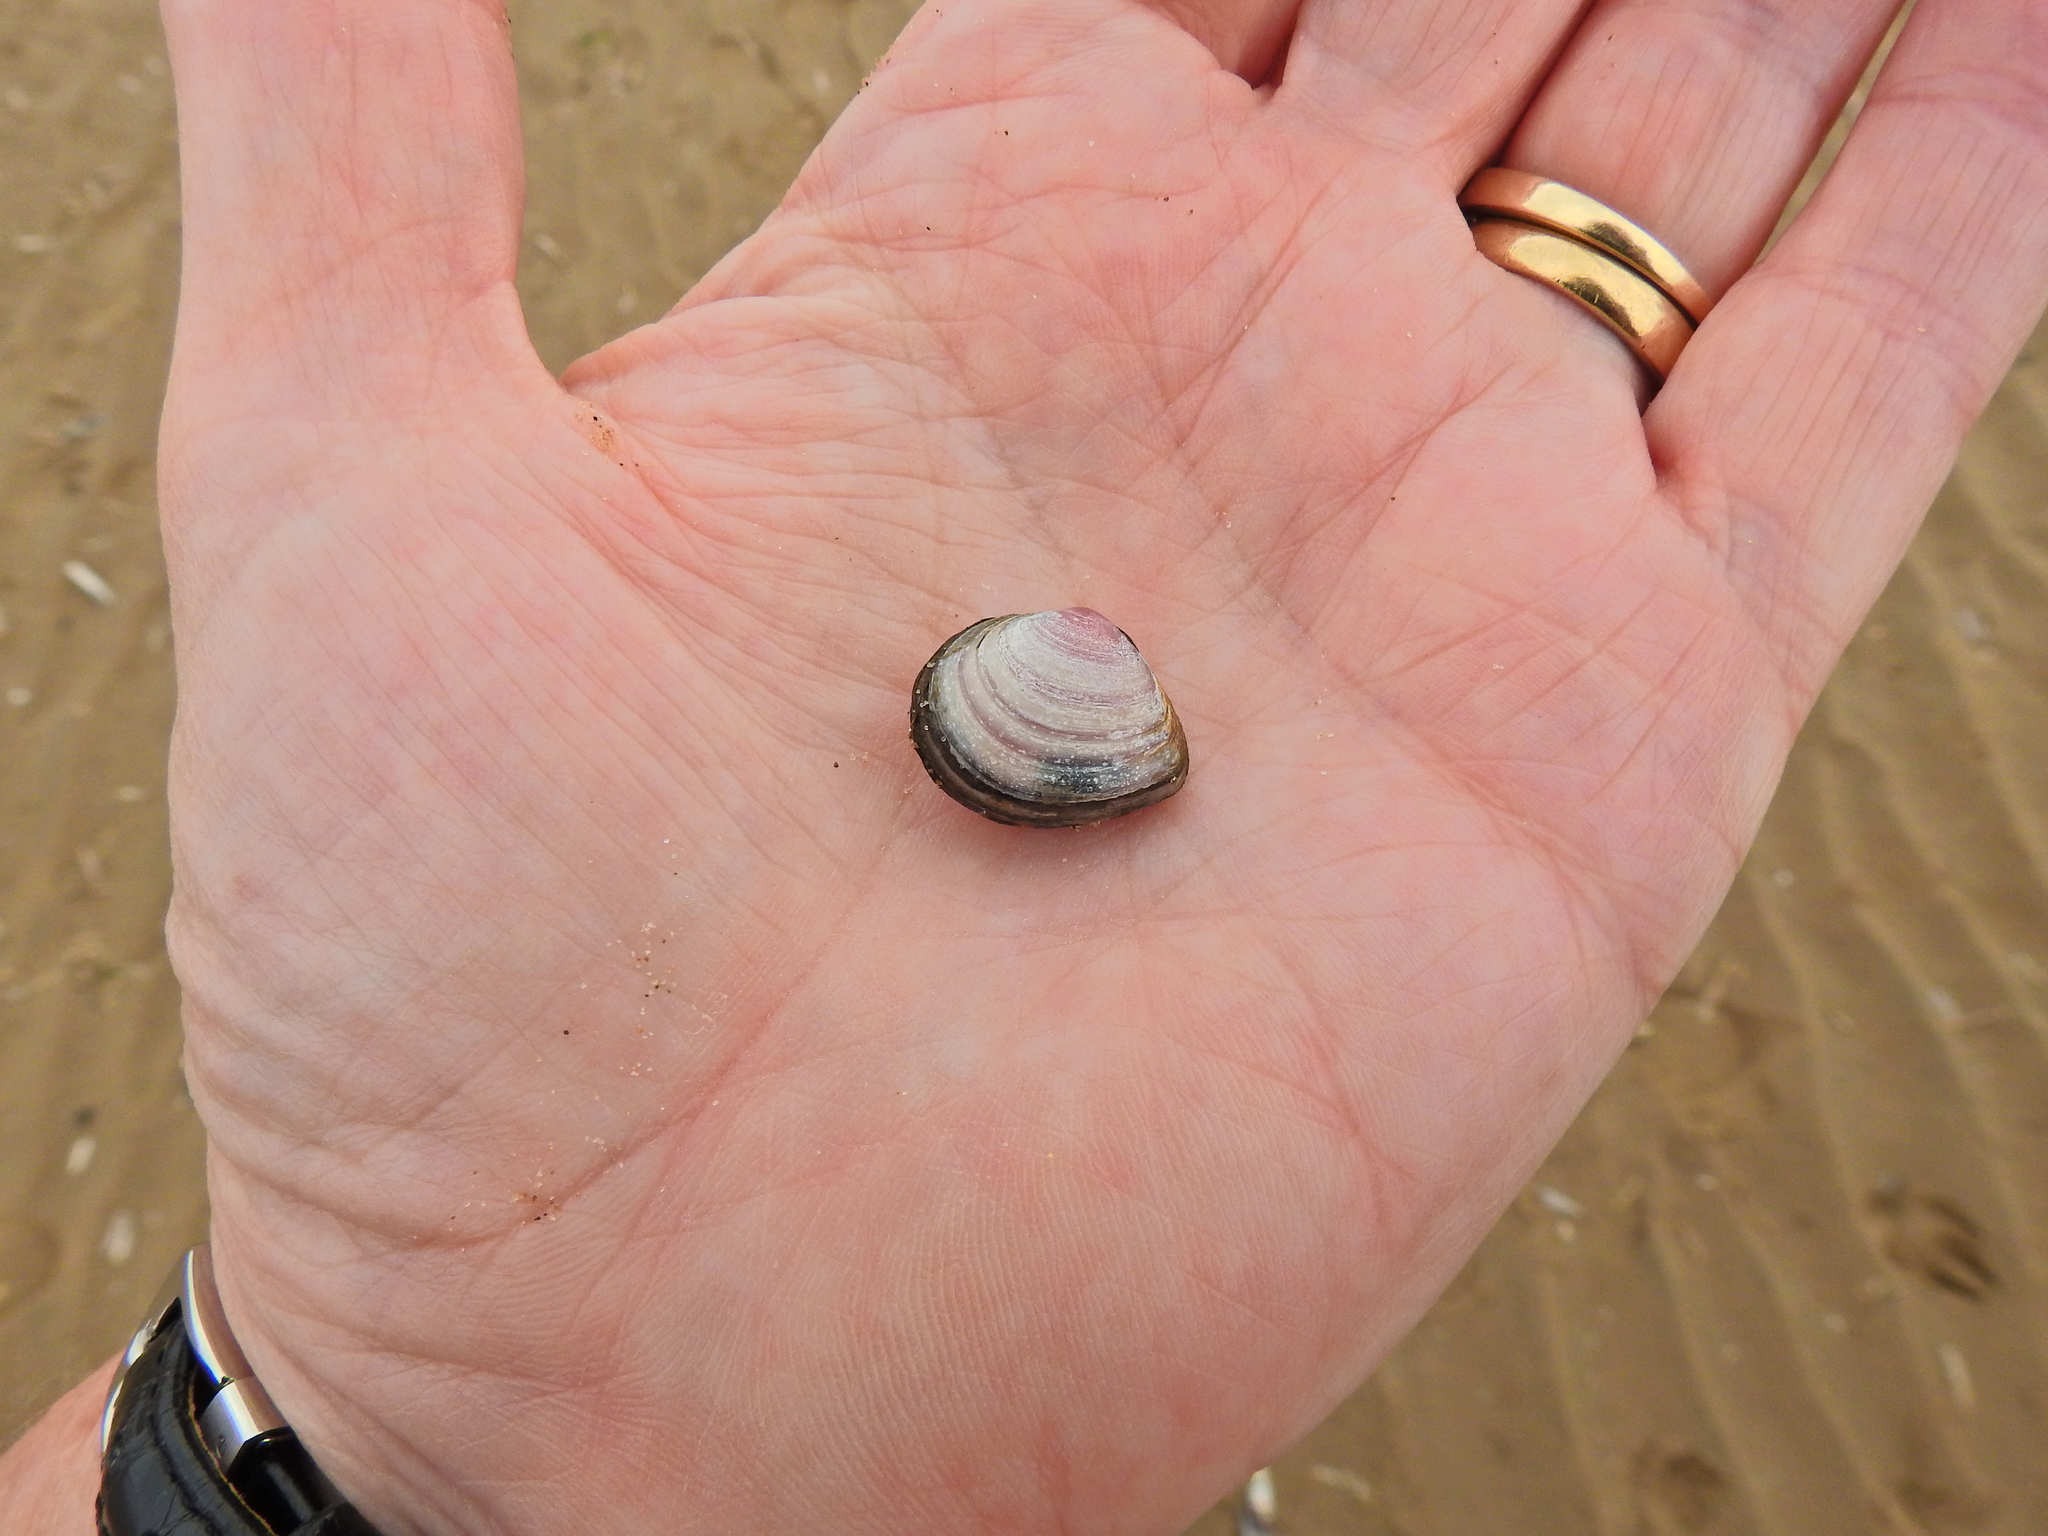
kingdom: Animalia
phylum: Mollusca
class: Bivalvia
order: Cardiida
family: Tellinidae
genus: Macoma
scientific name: Macoma balthica
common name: Baltic tellin
